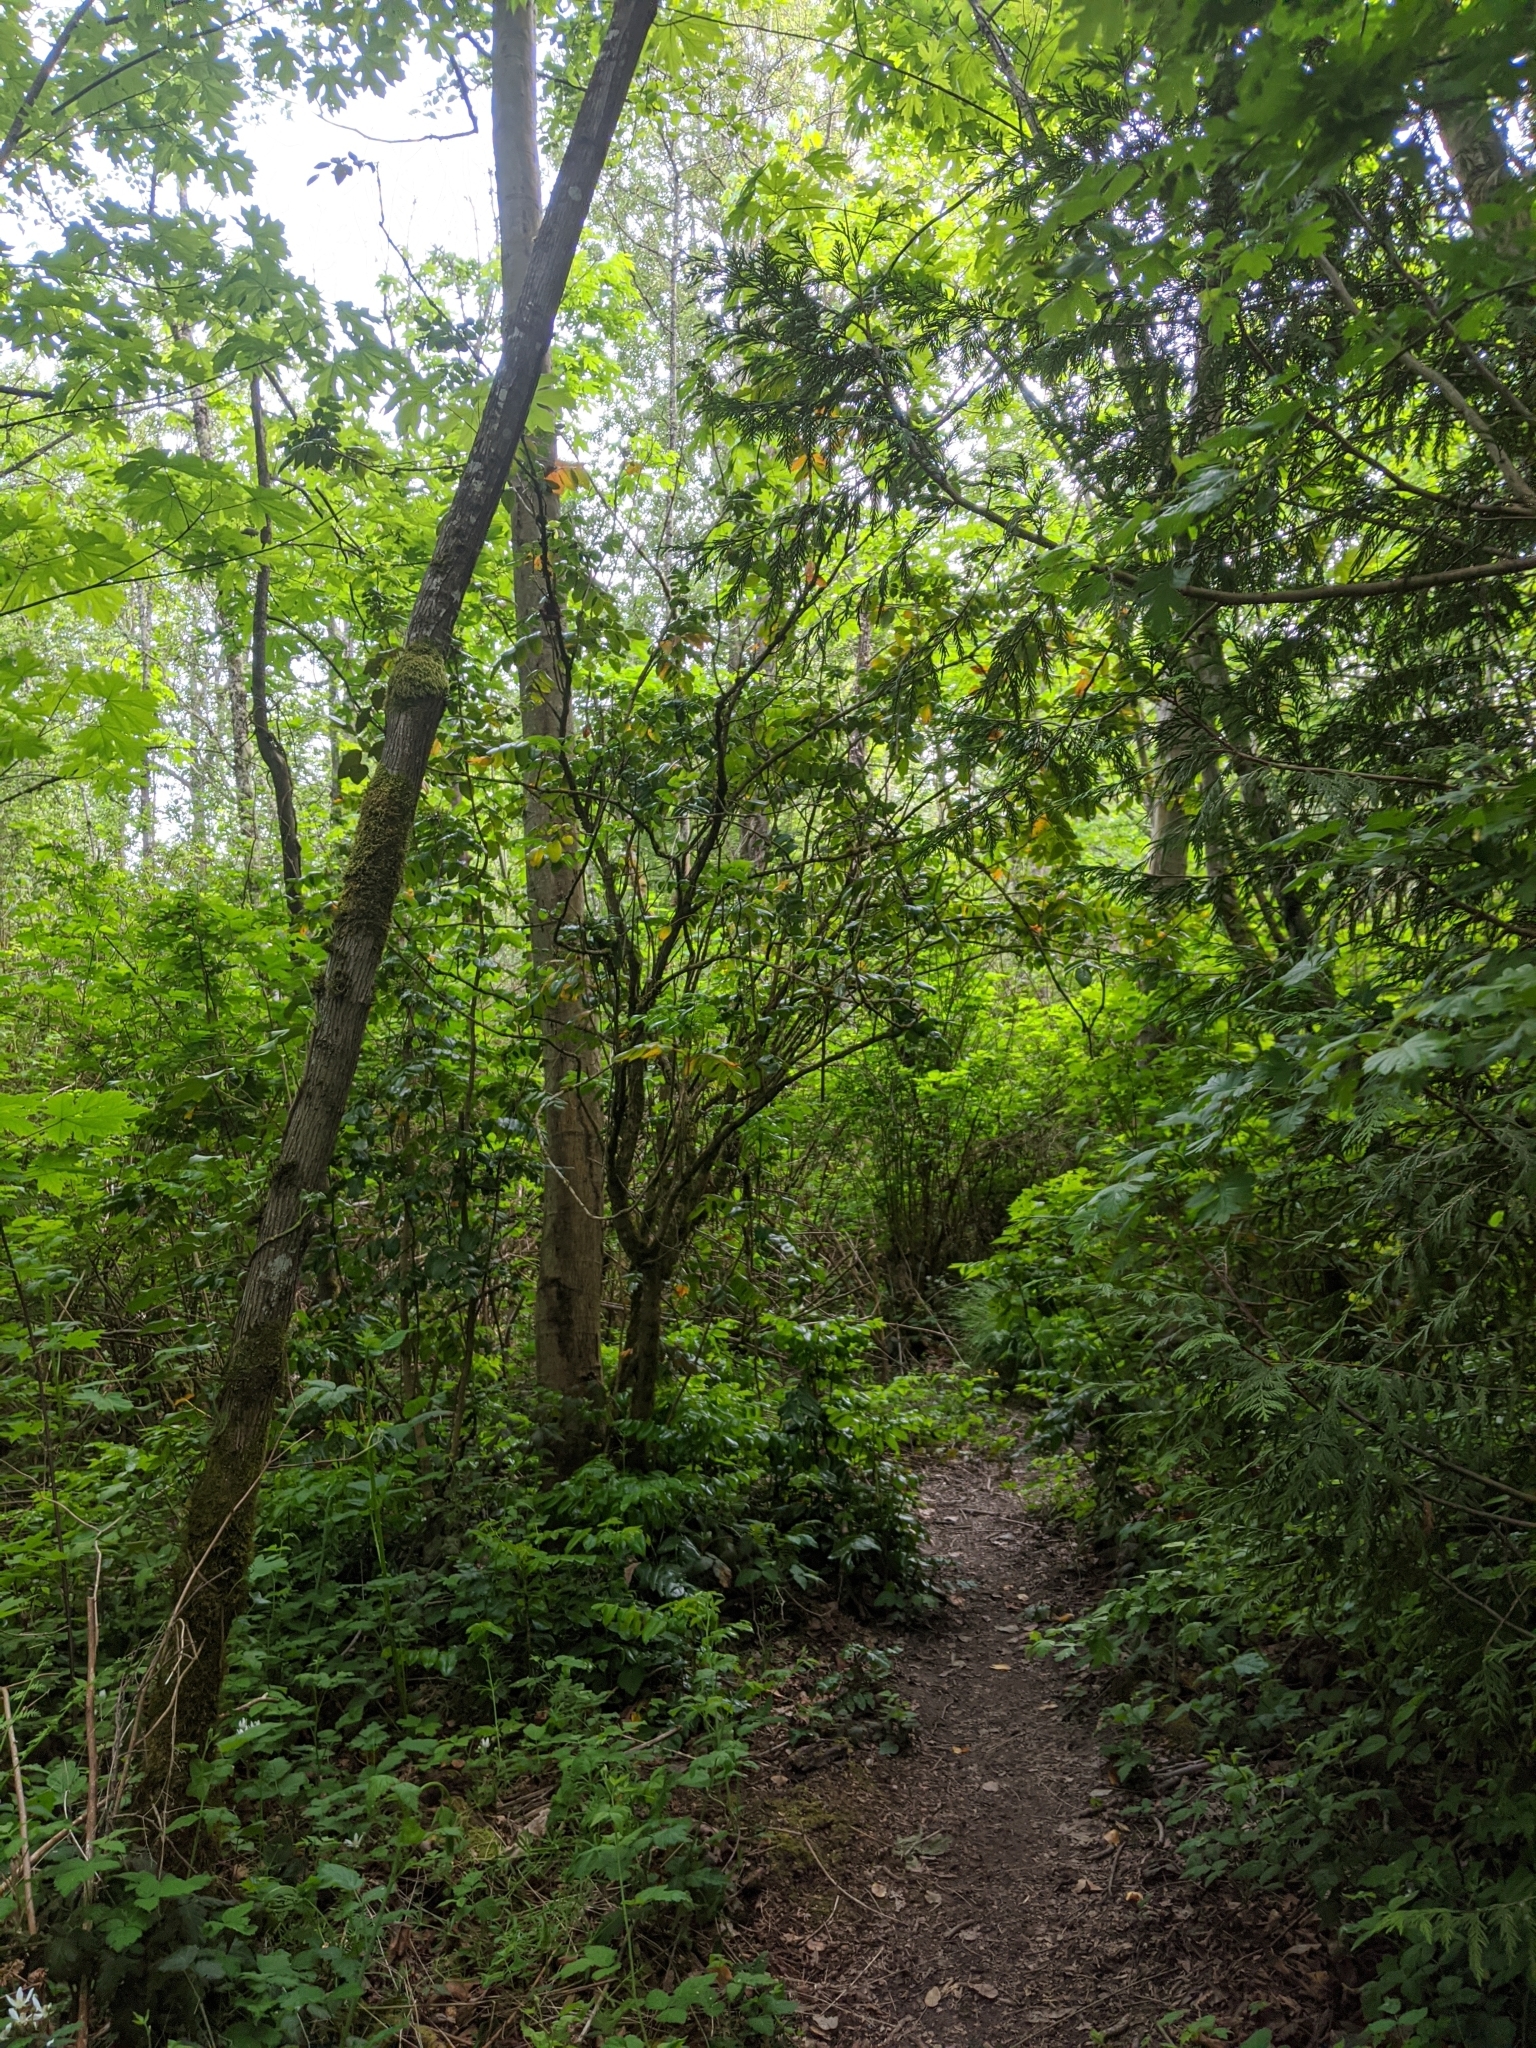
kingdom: Plantae
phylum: Tracheophyta
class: Magnoliopsida
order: Ranunculales
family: Berberidaceae
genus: Mahonia
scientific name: Mahonia aquifolium
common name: Oregon-grape
